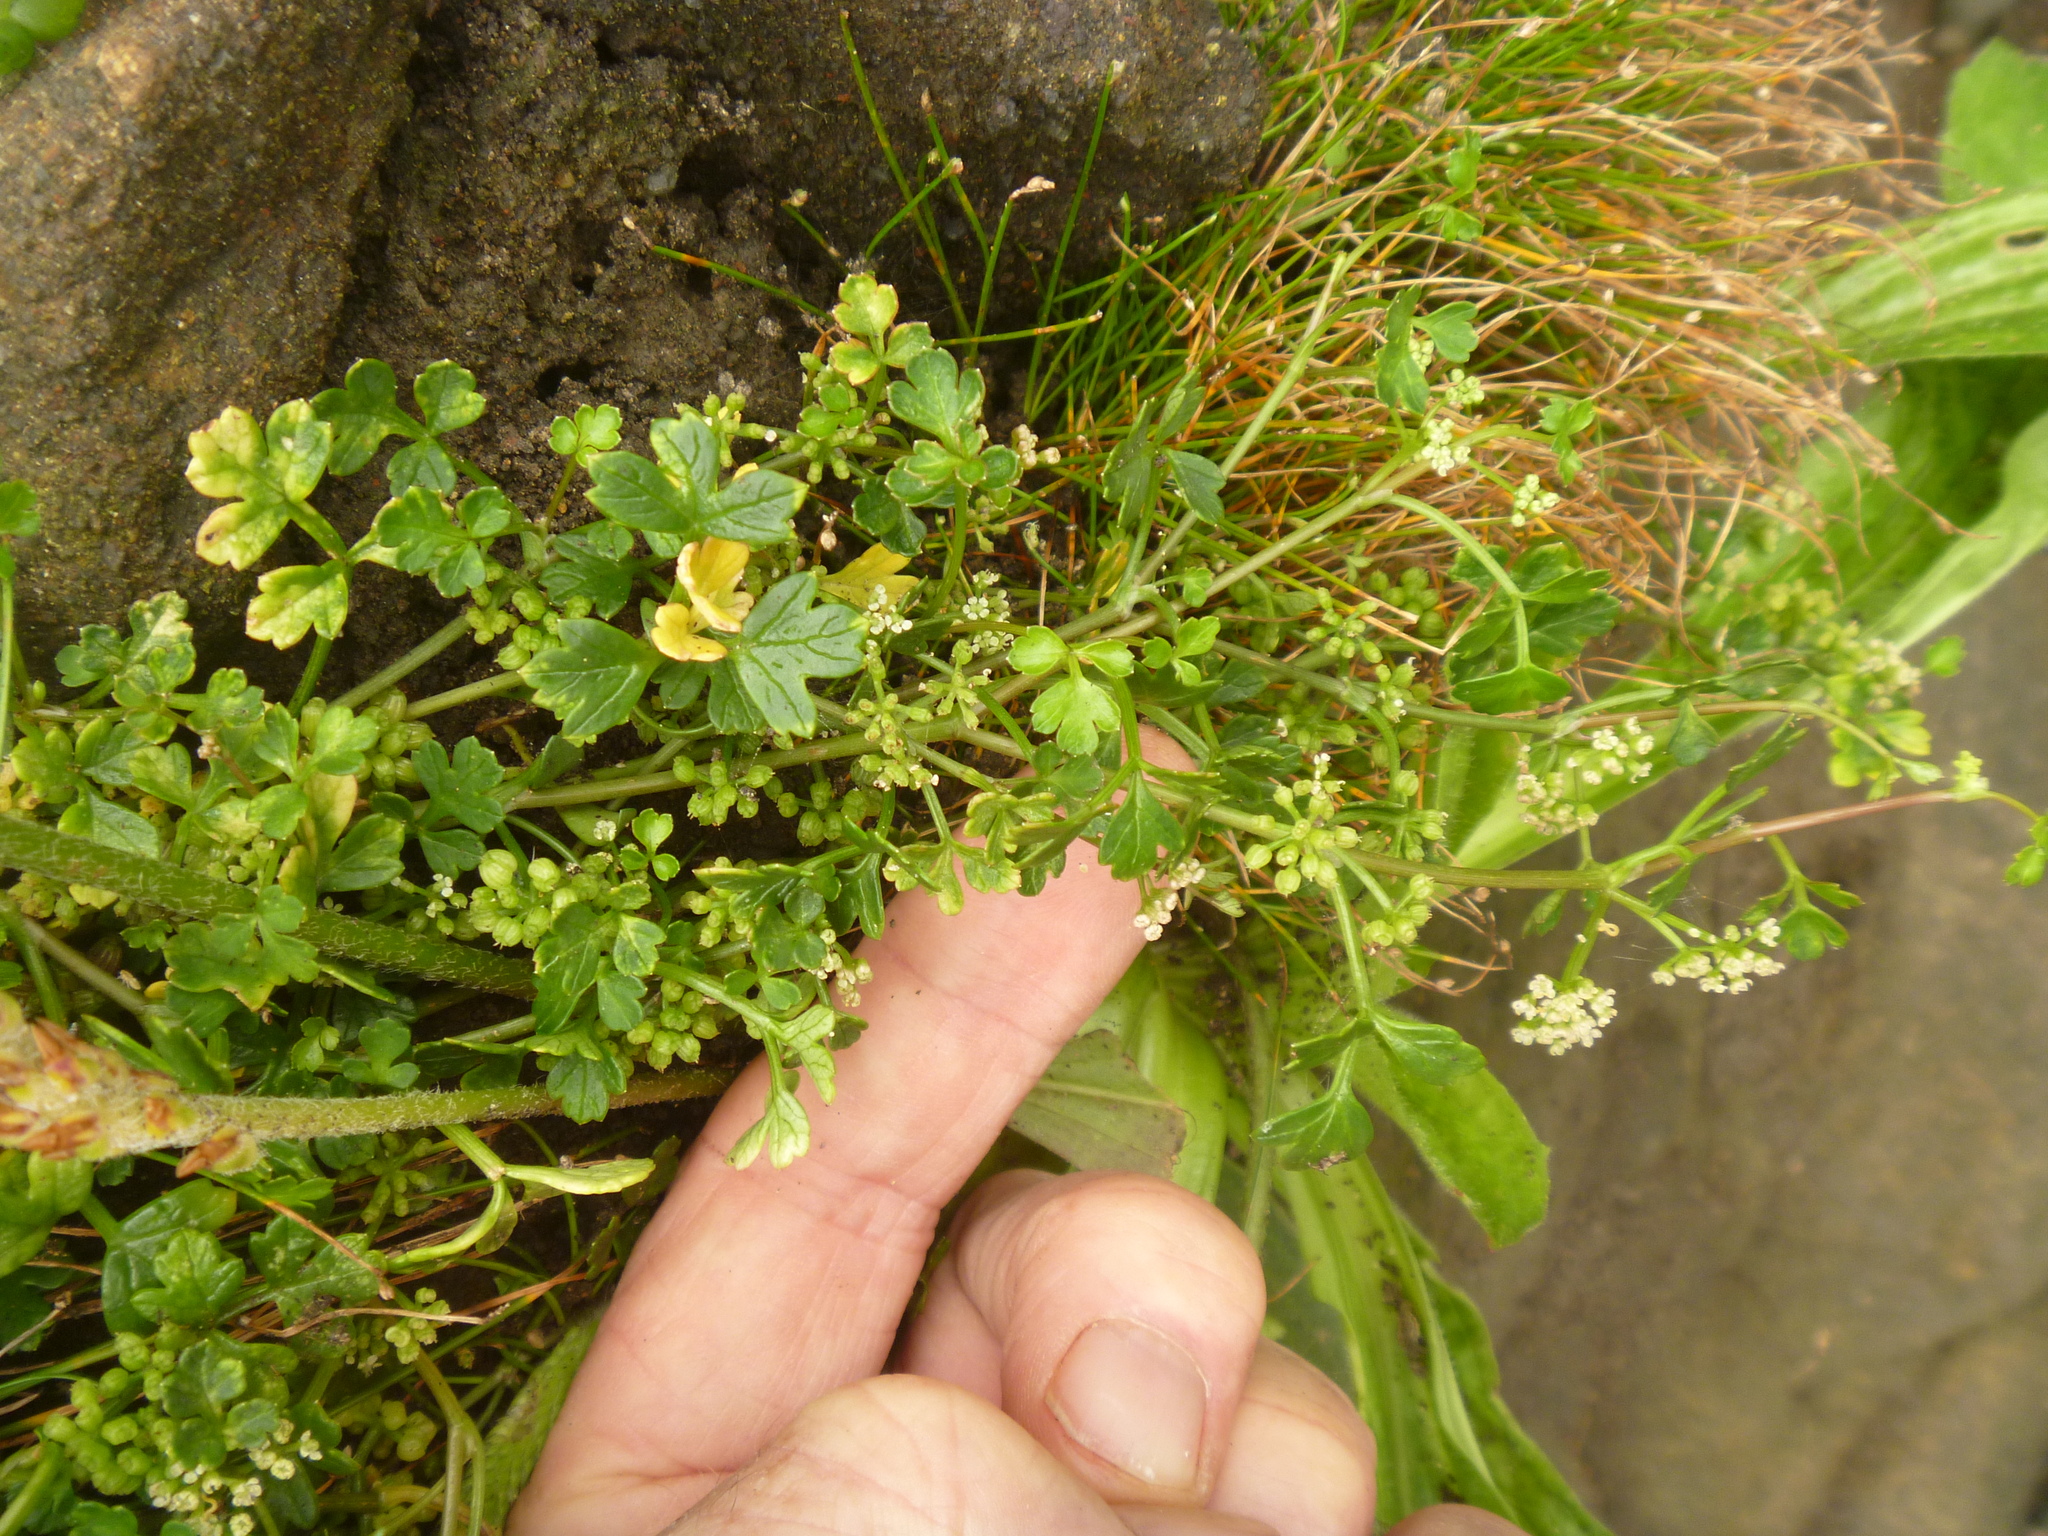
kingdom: Plantae
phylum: Tracheophyta
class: Magnoliopsida
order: Apiales
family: Apiaceae
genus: Apium
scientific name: Apium prostratum
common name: Prostrate marshwort
